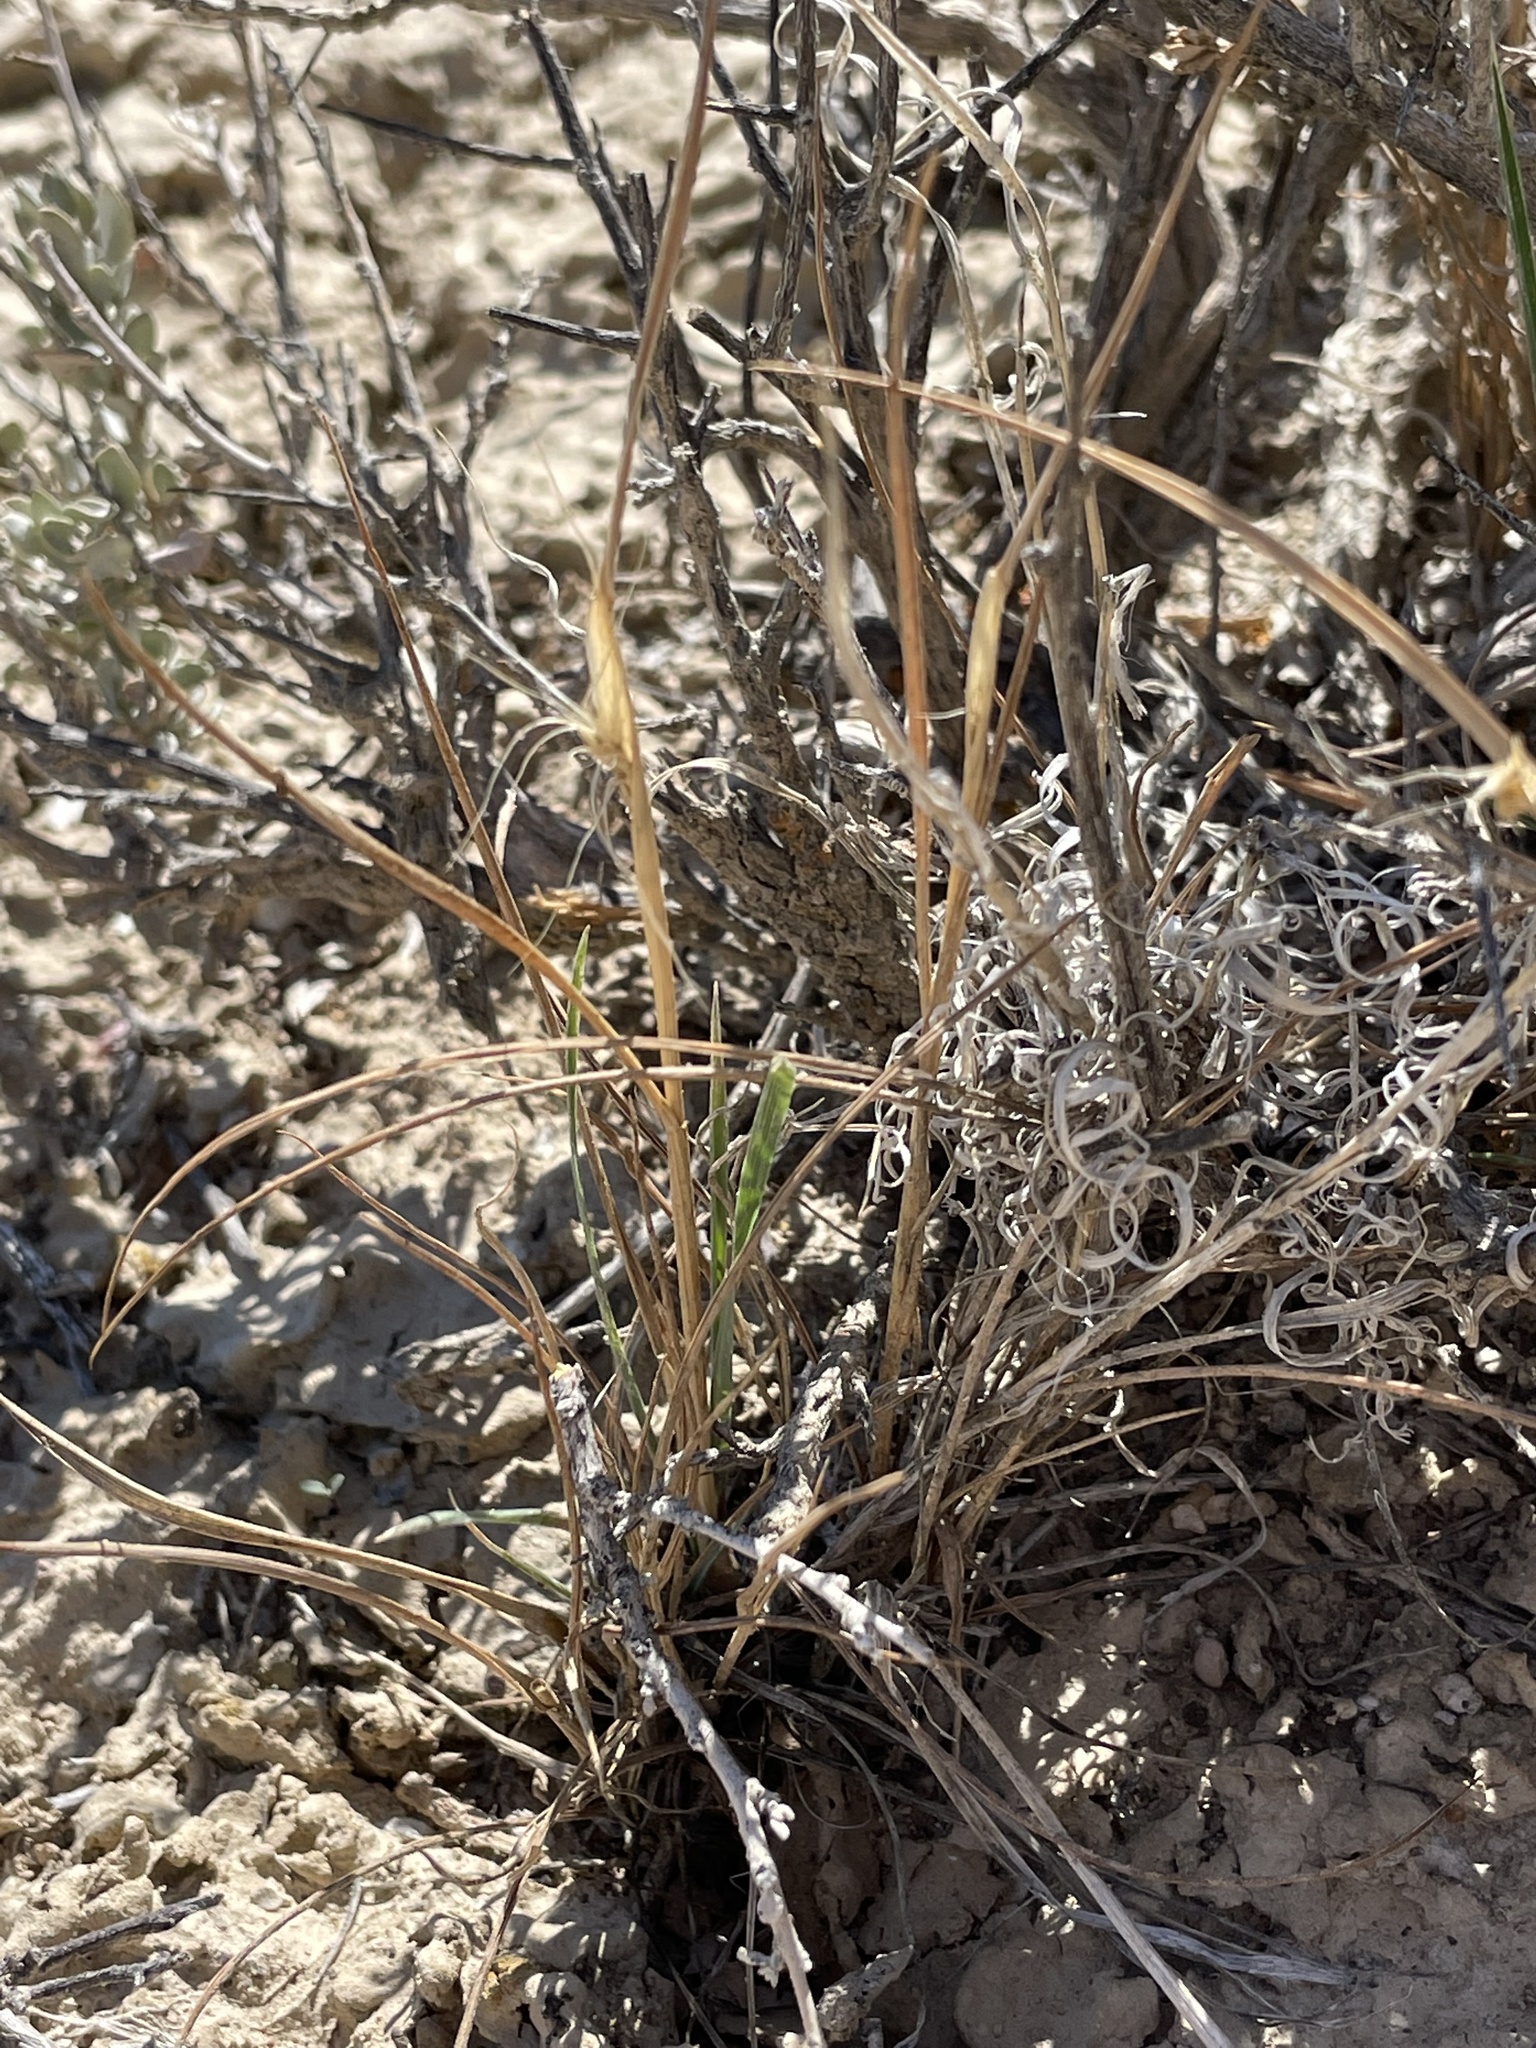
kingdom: Plantae
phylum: Tracheophyta
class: Liliopsida
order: Poales
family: Poaceae
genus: Elymus
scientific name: Elymus elymoides
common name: Bottlebrush squirreltail
